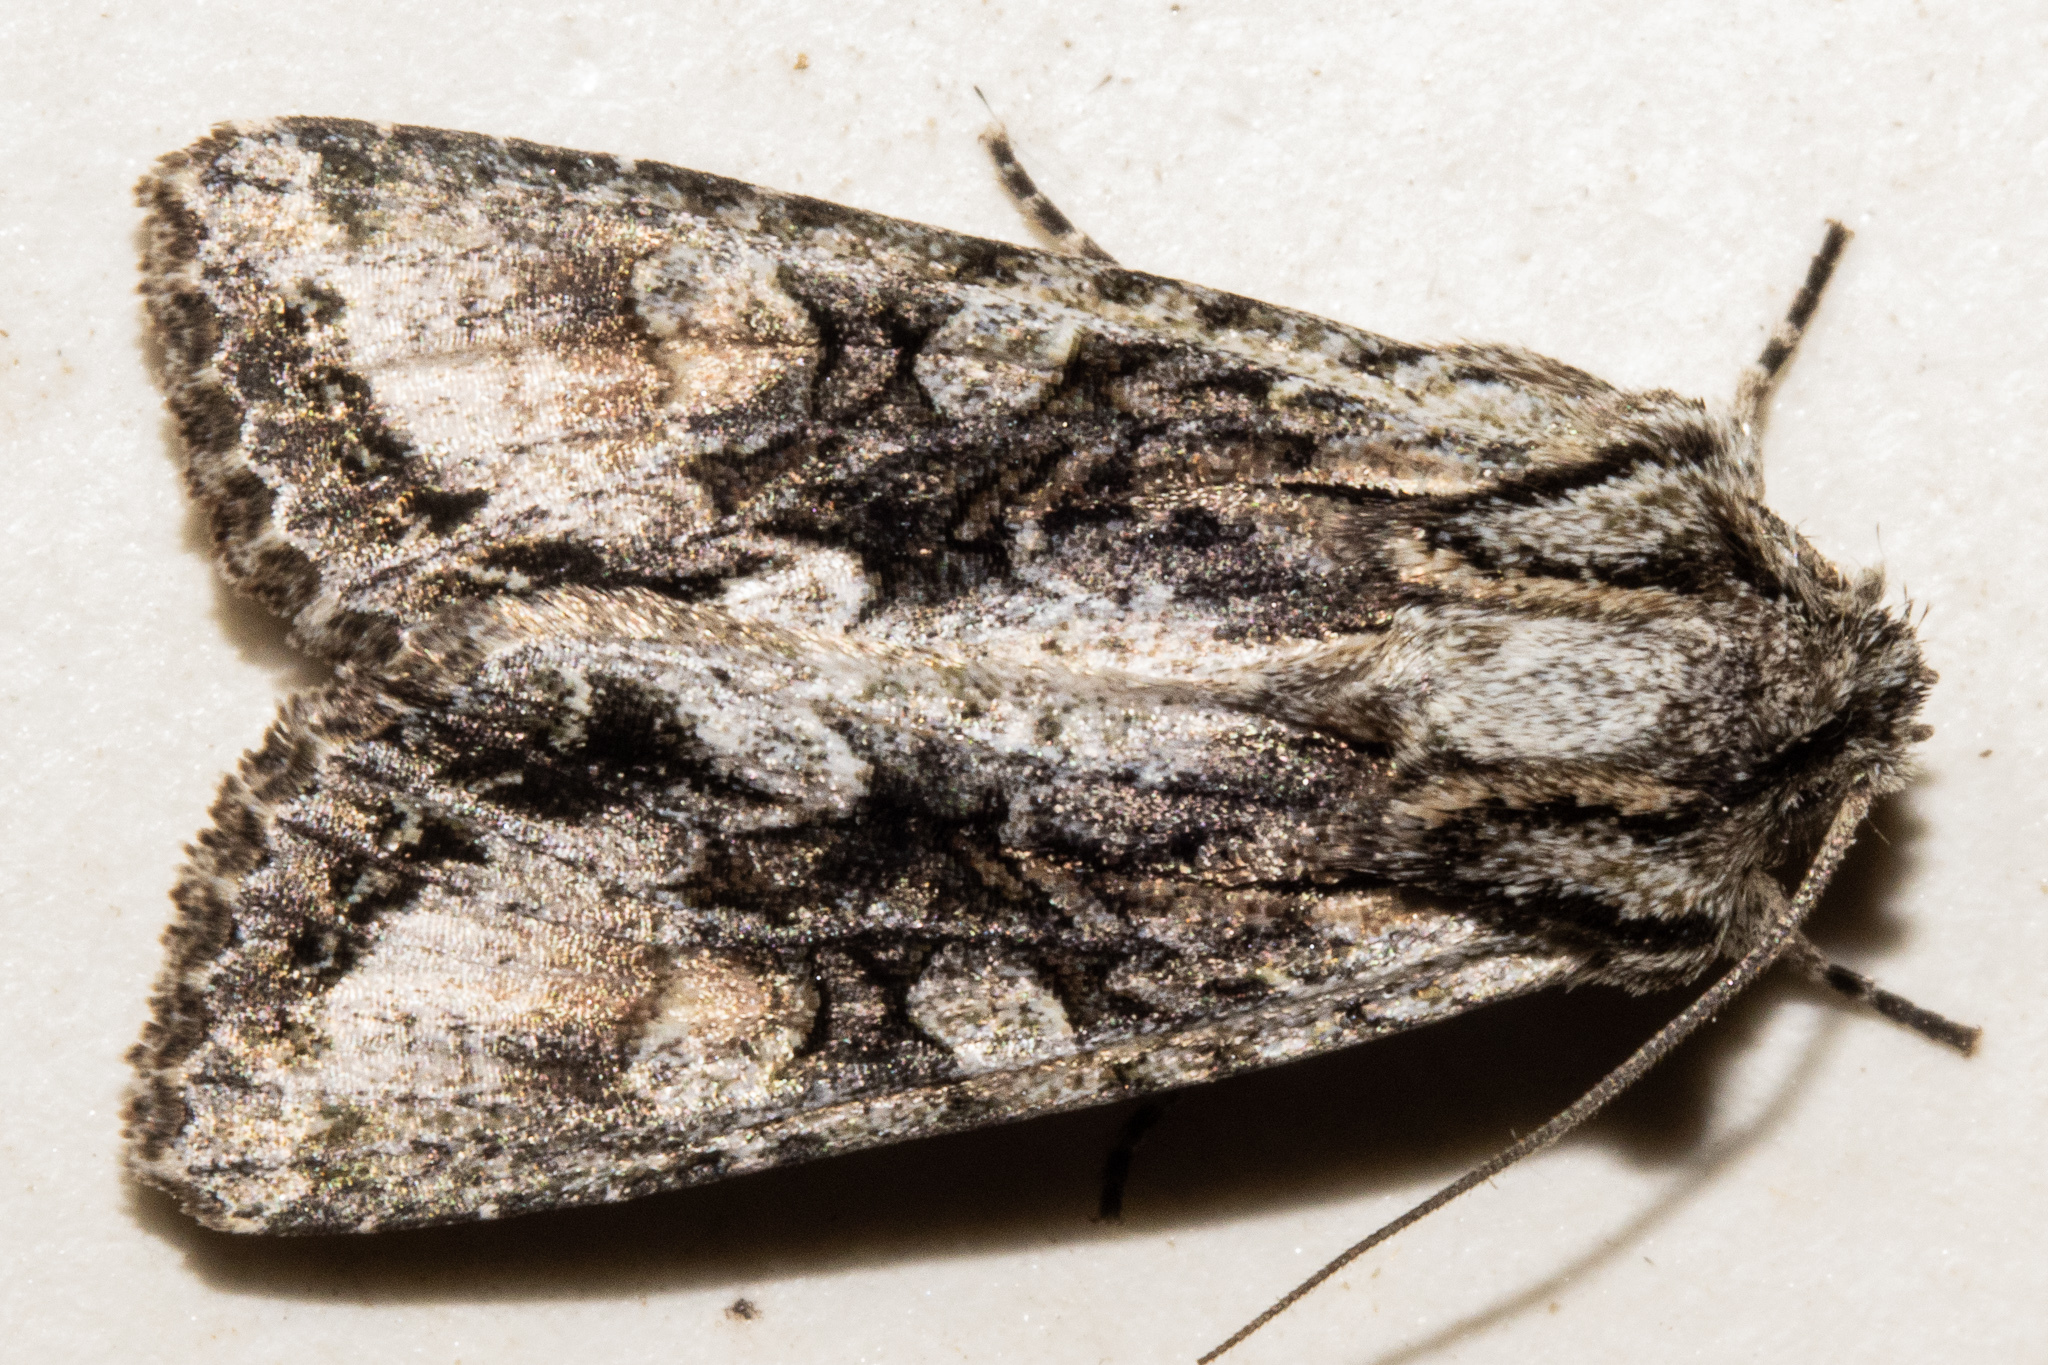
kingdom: Animalia
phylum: Arthropoda
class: Insecta
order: Lepidoptera
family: Noctuidae
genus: Ichneutica
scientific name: Ichneutica mutans
